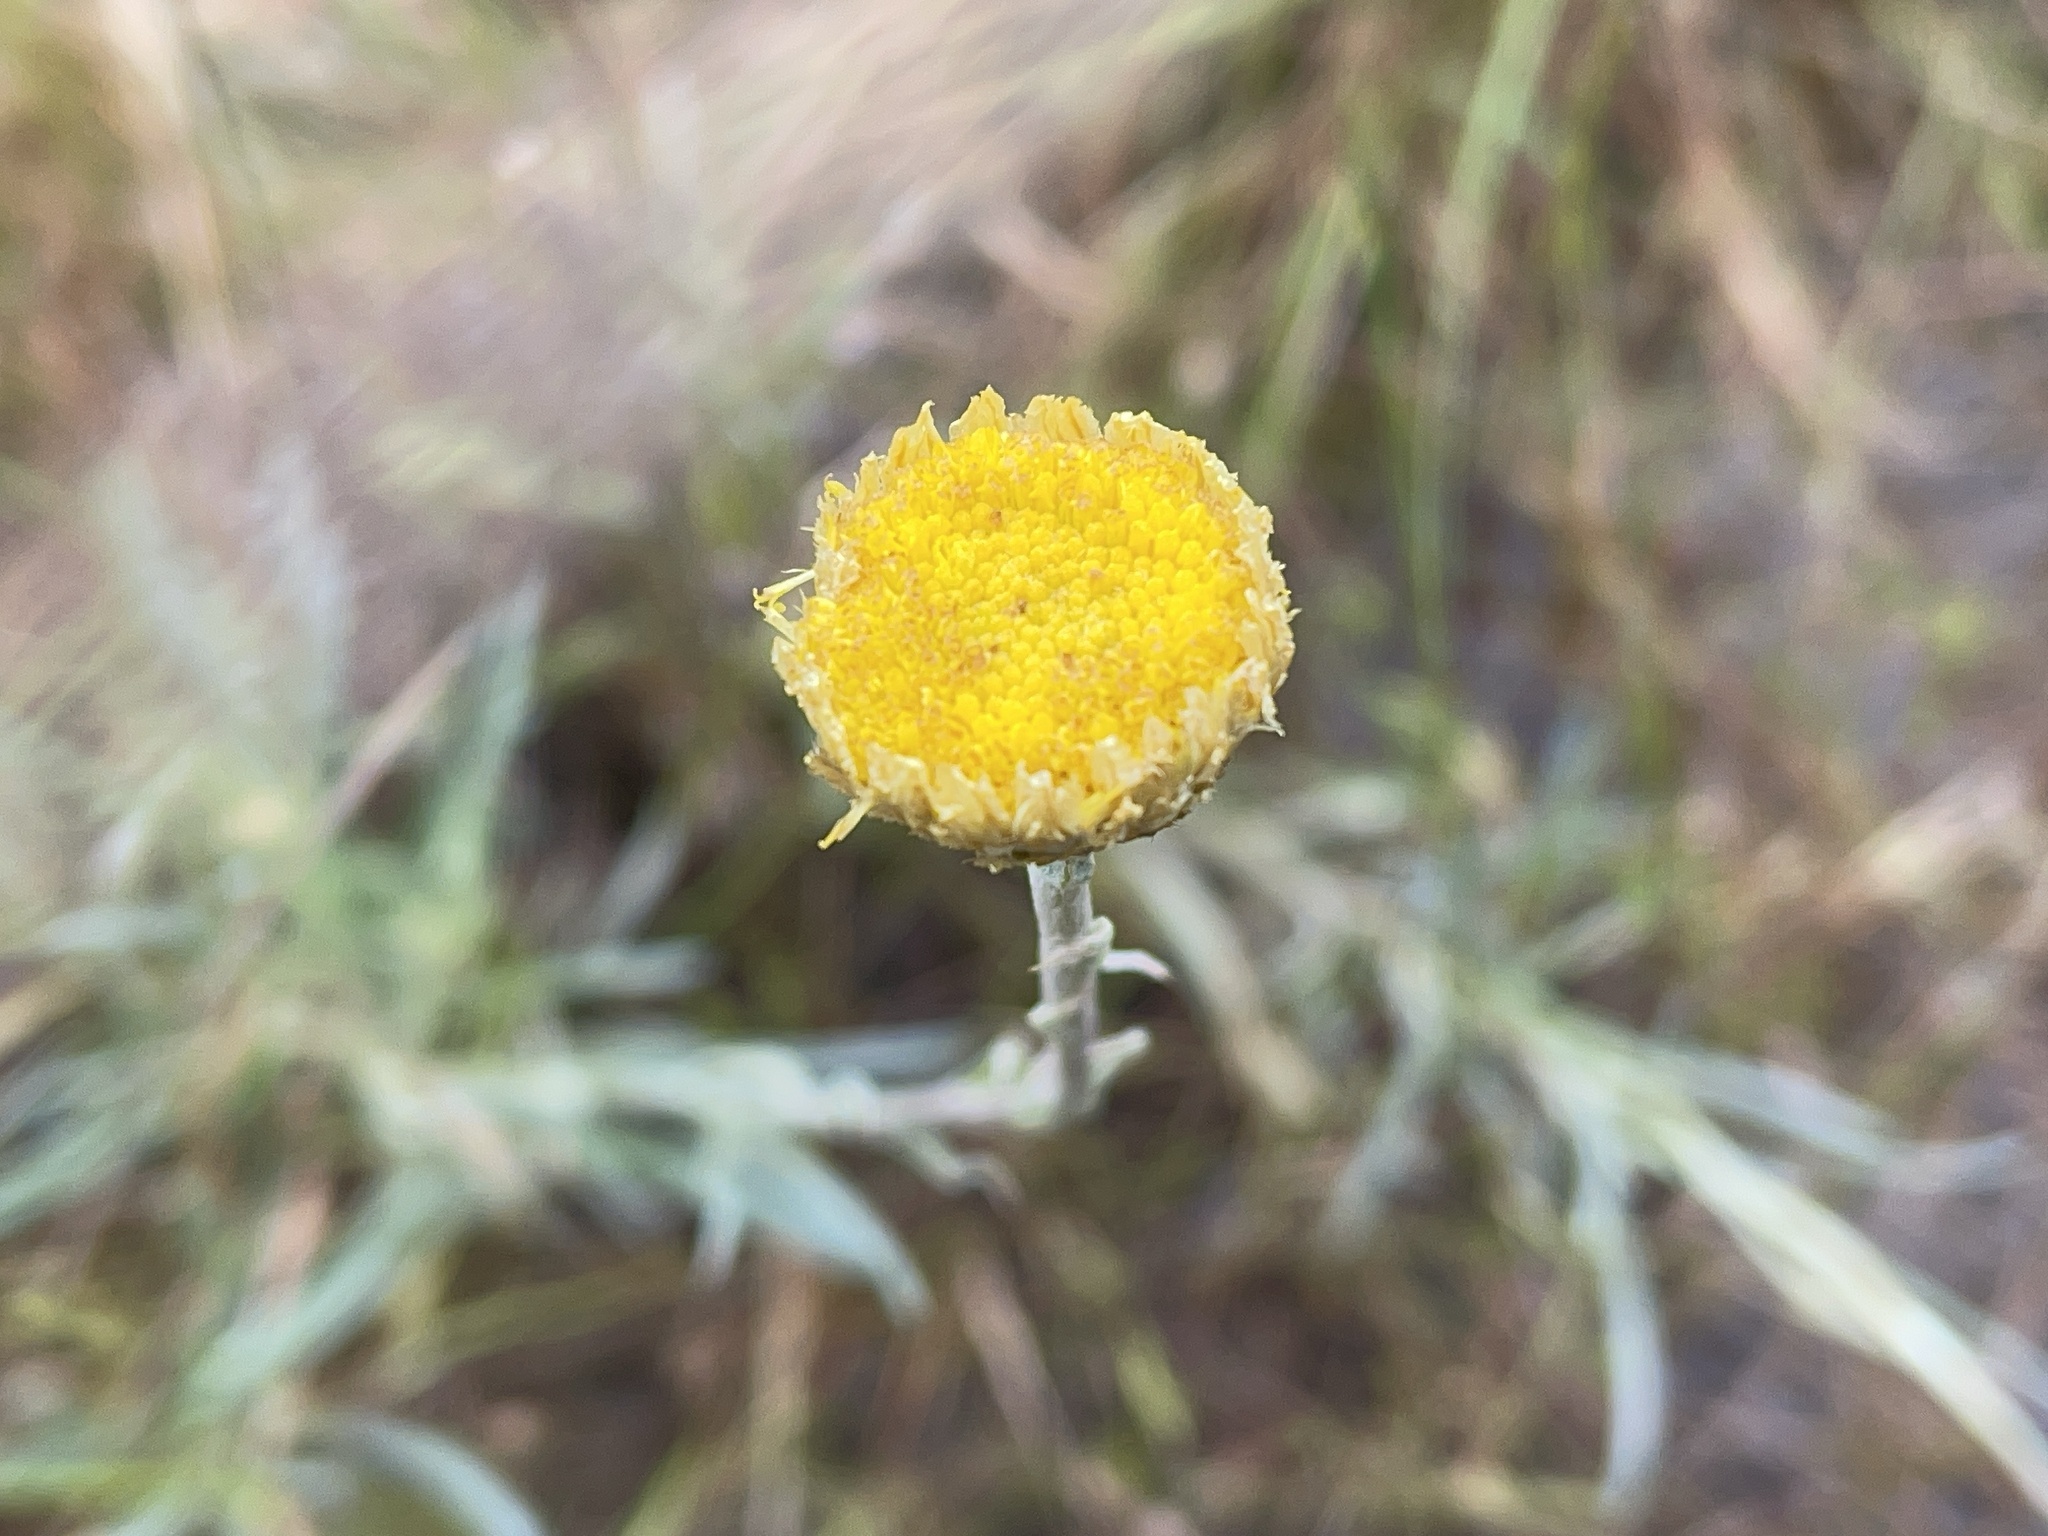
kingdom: Plantae
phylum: Tracheophyta
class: Magnoliopsida
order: Asterales
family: Asteraceae
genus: Coronidium
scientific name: Coronidium scorpioides
